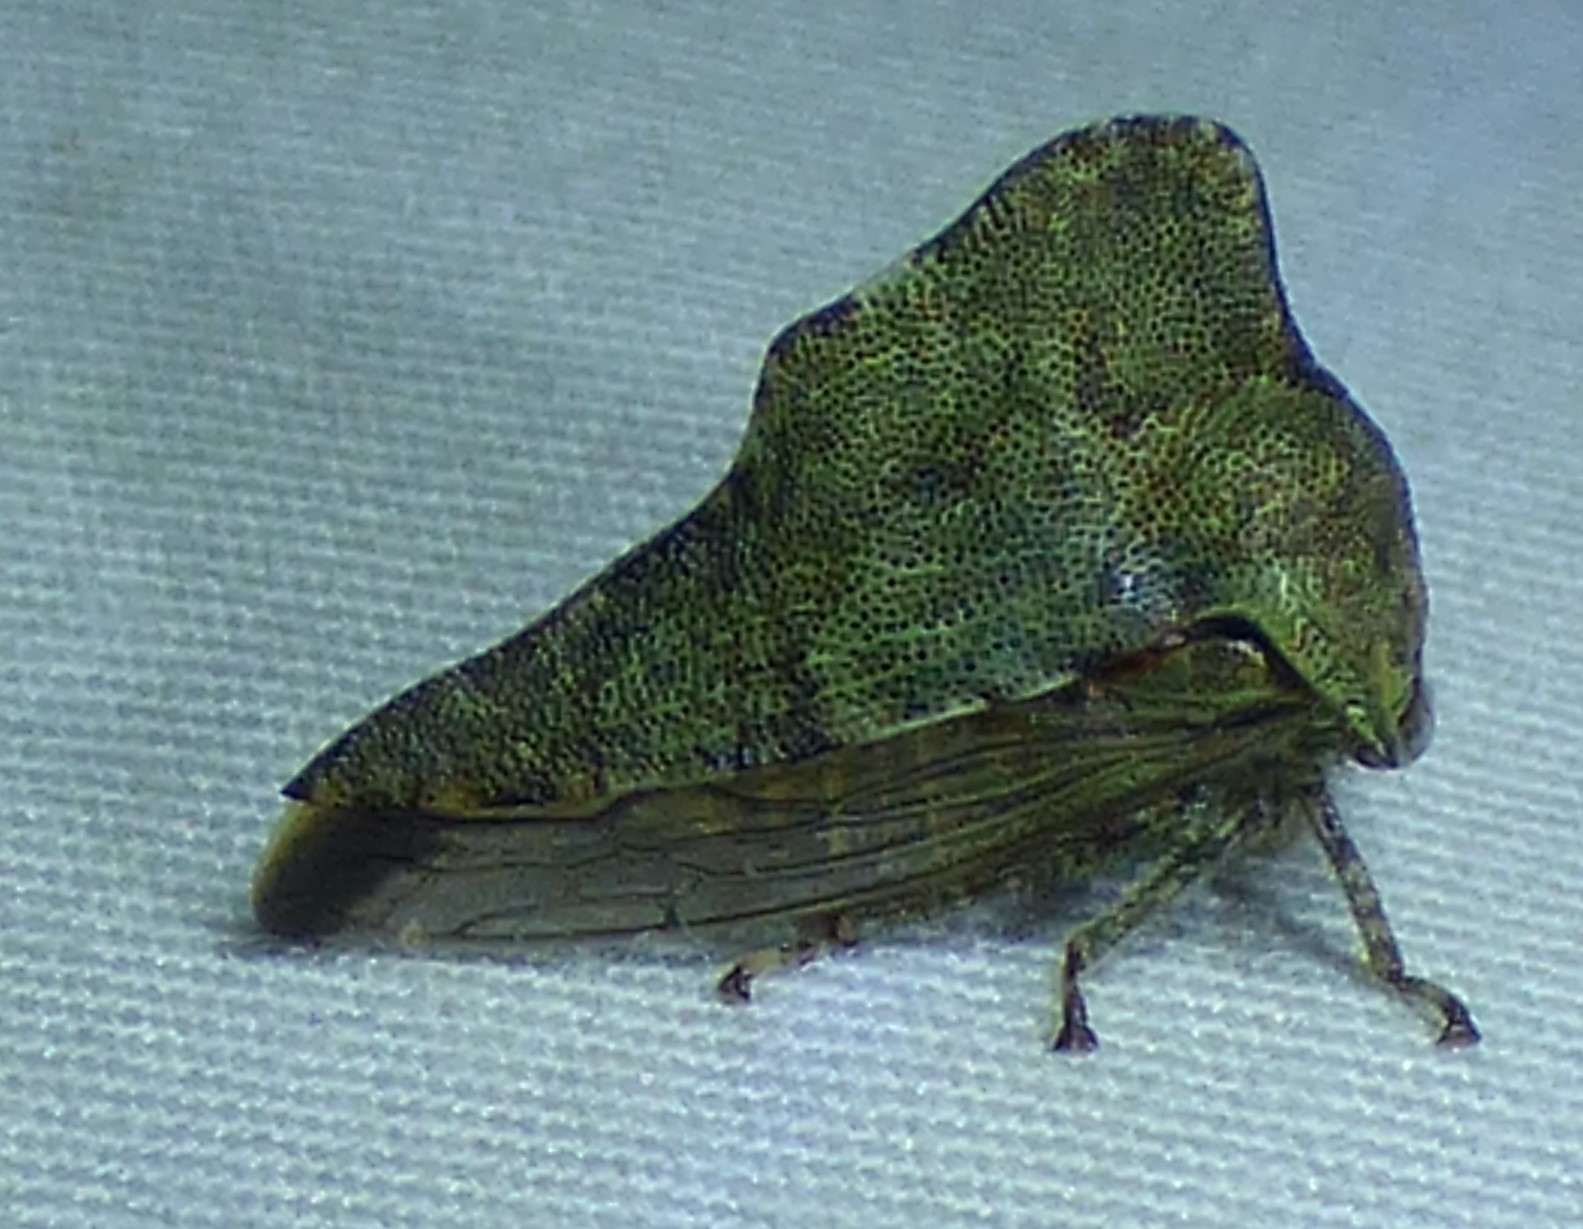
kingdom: Animalia
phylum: Arthropoda
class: Insecta
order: Hemiptera
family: Membracidae
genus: Heliria
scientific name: Heliria cornutula
